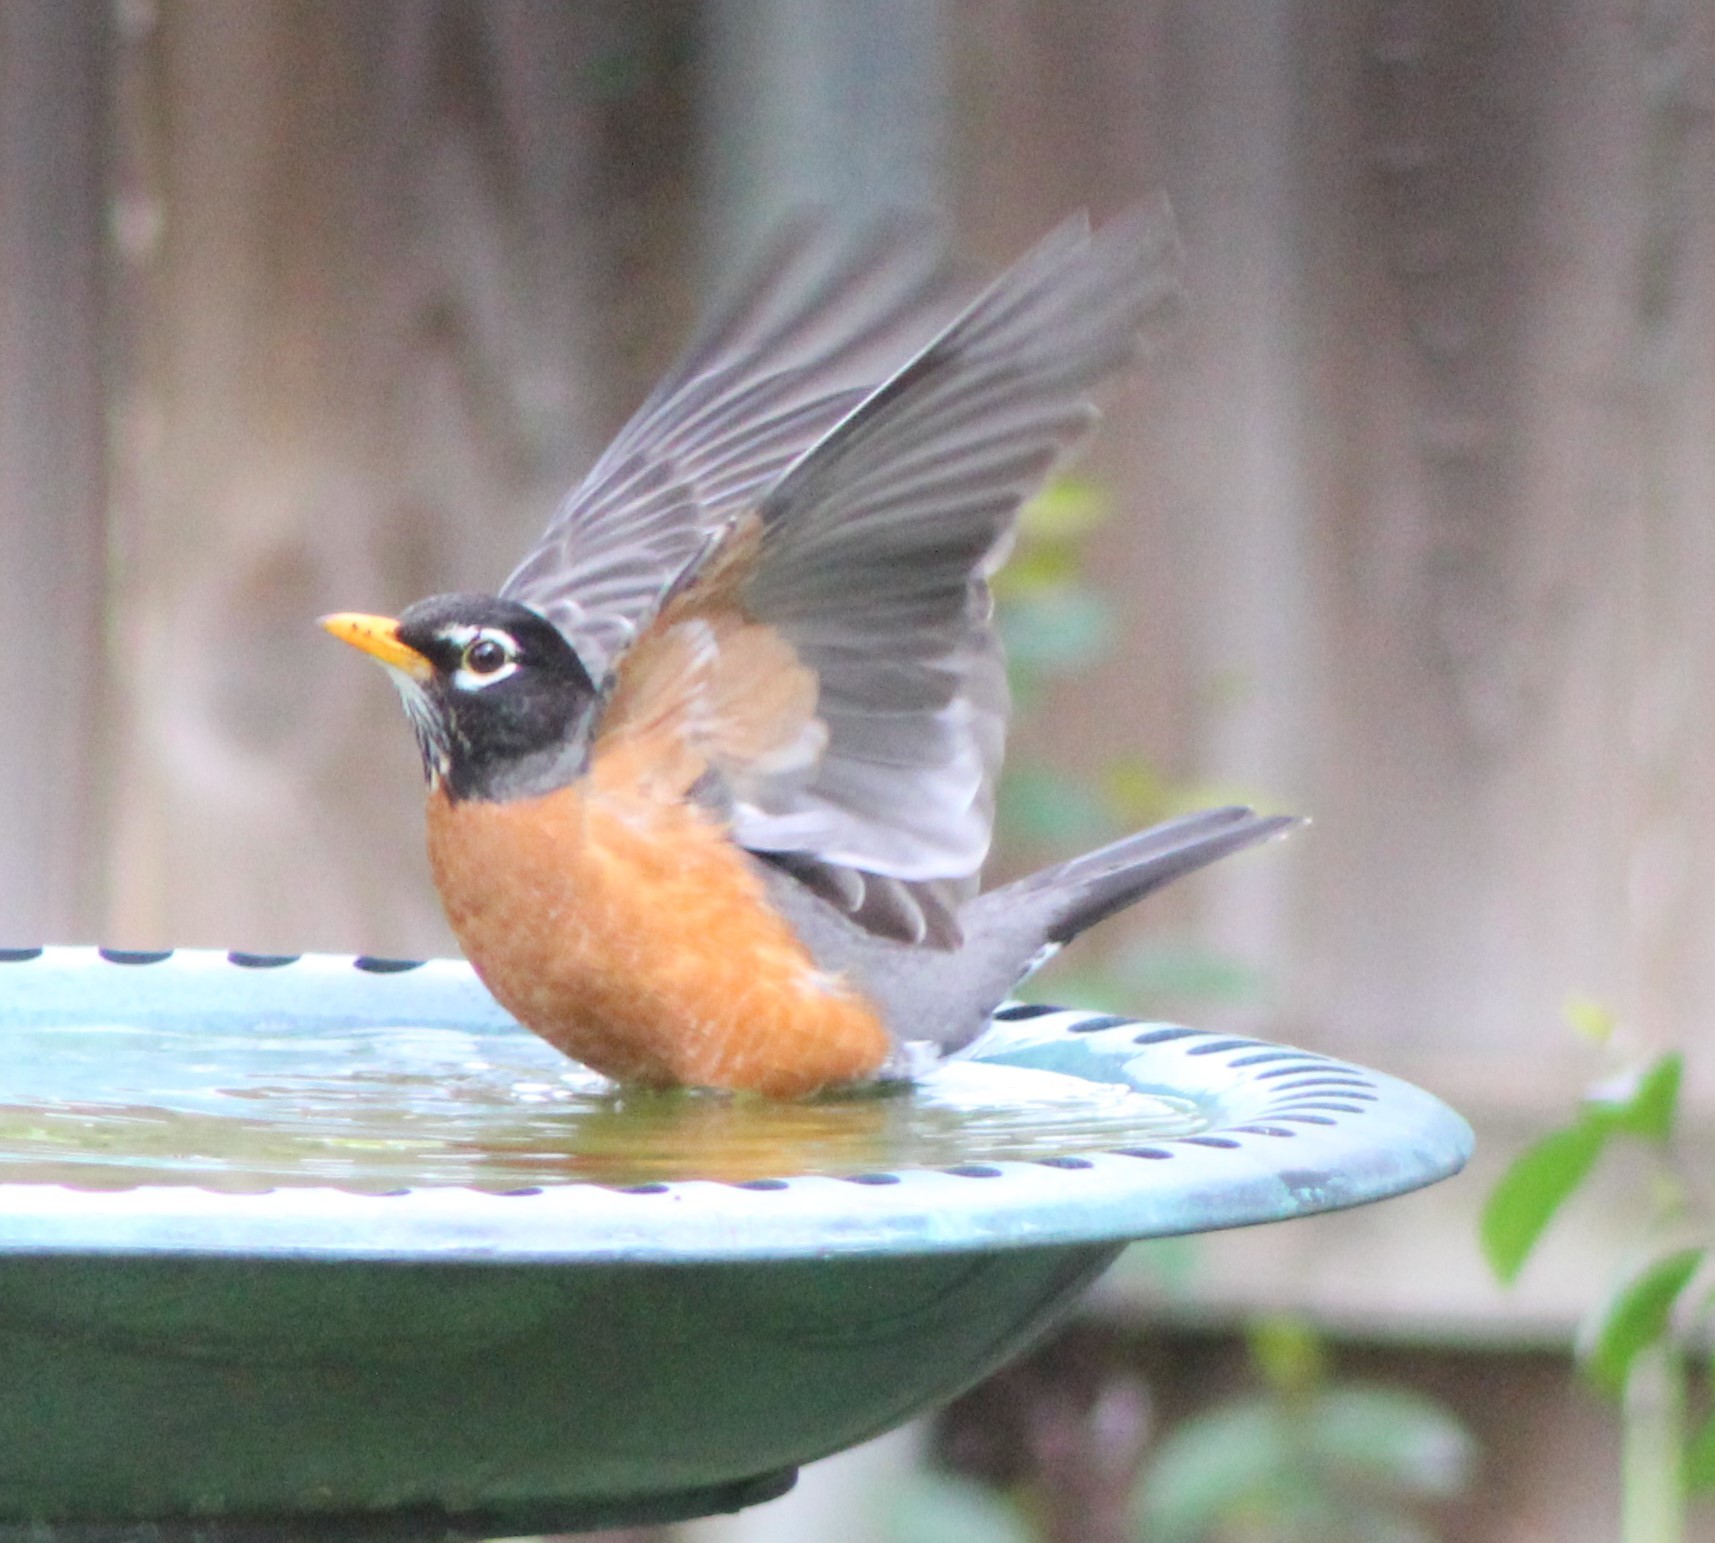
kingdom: Animalia
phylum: Chordata
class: Aves
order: Passeriformes
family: Turdidae
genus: Turdus
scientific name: Turdus migratorius
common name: American robin
